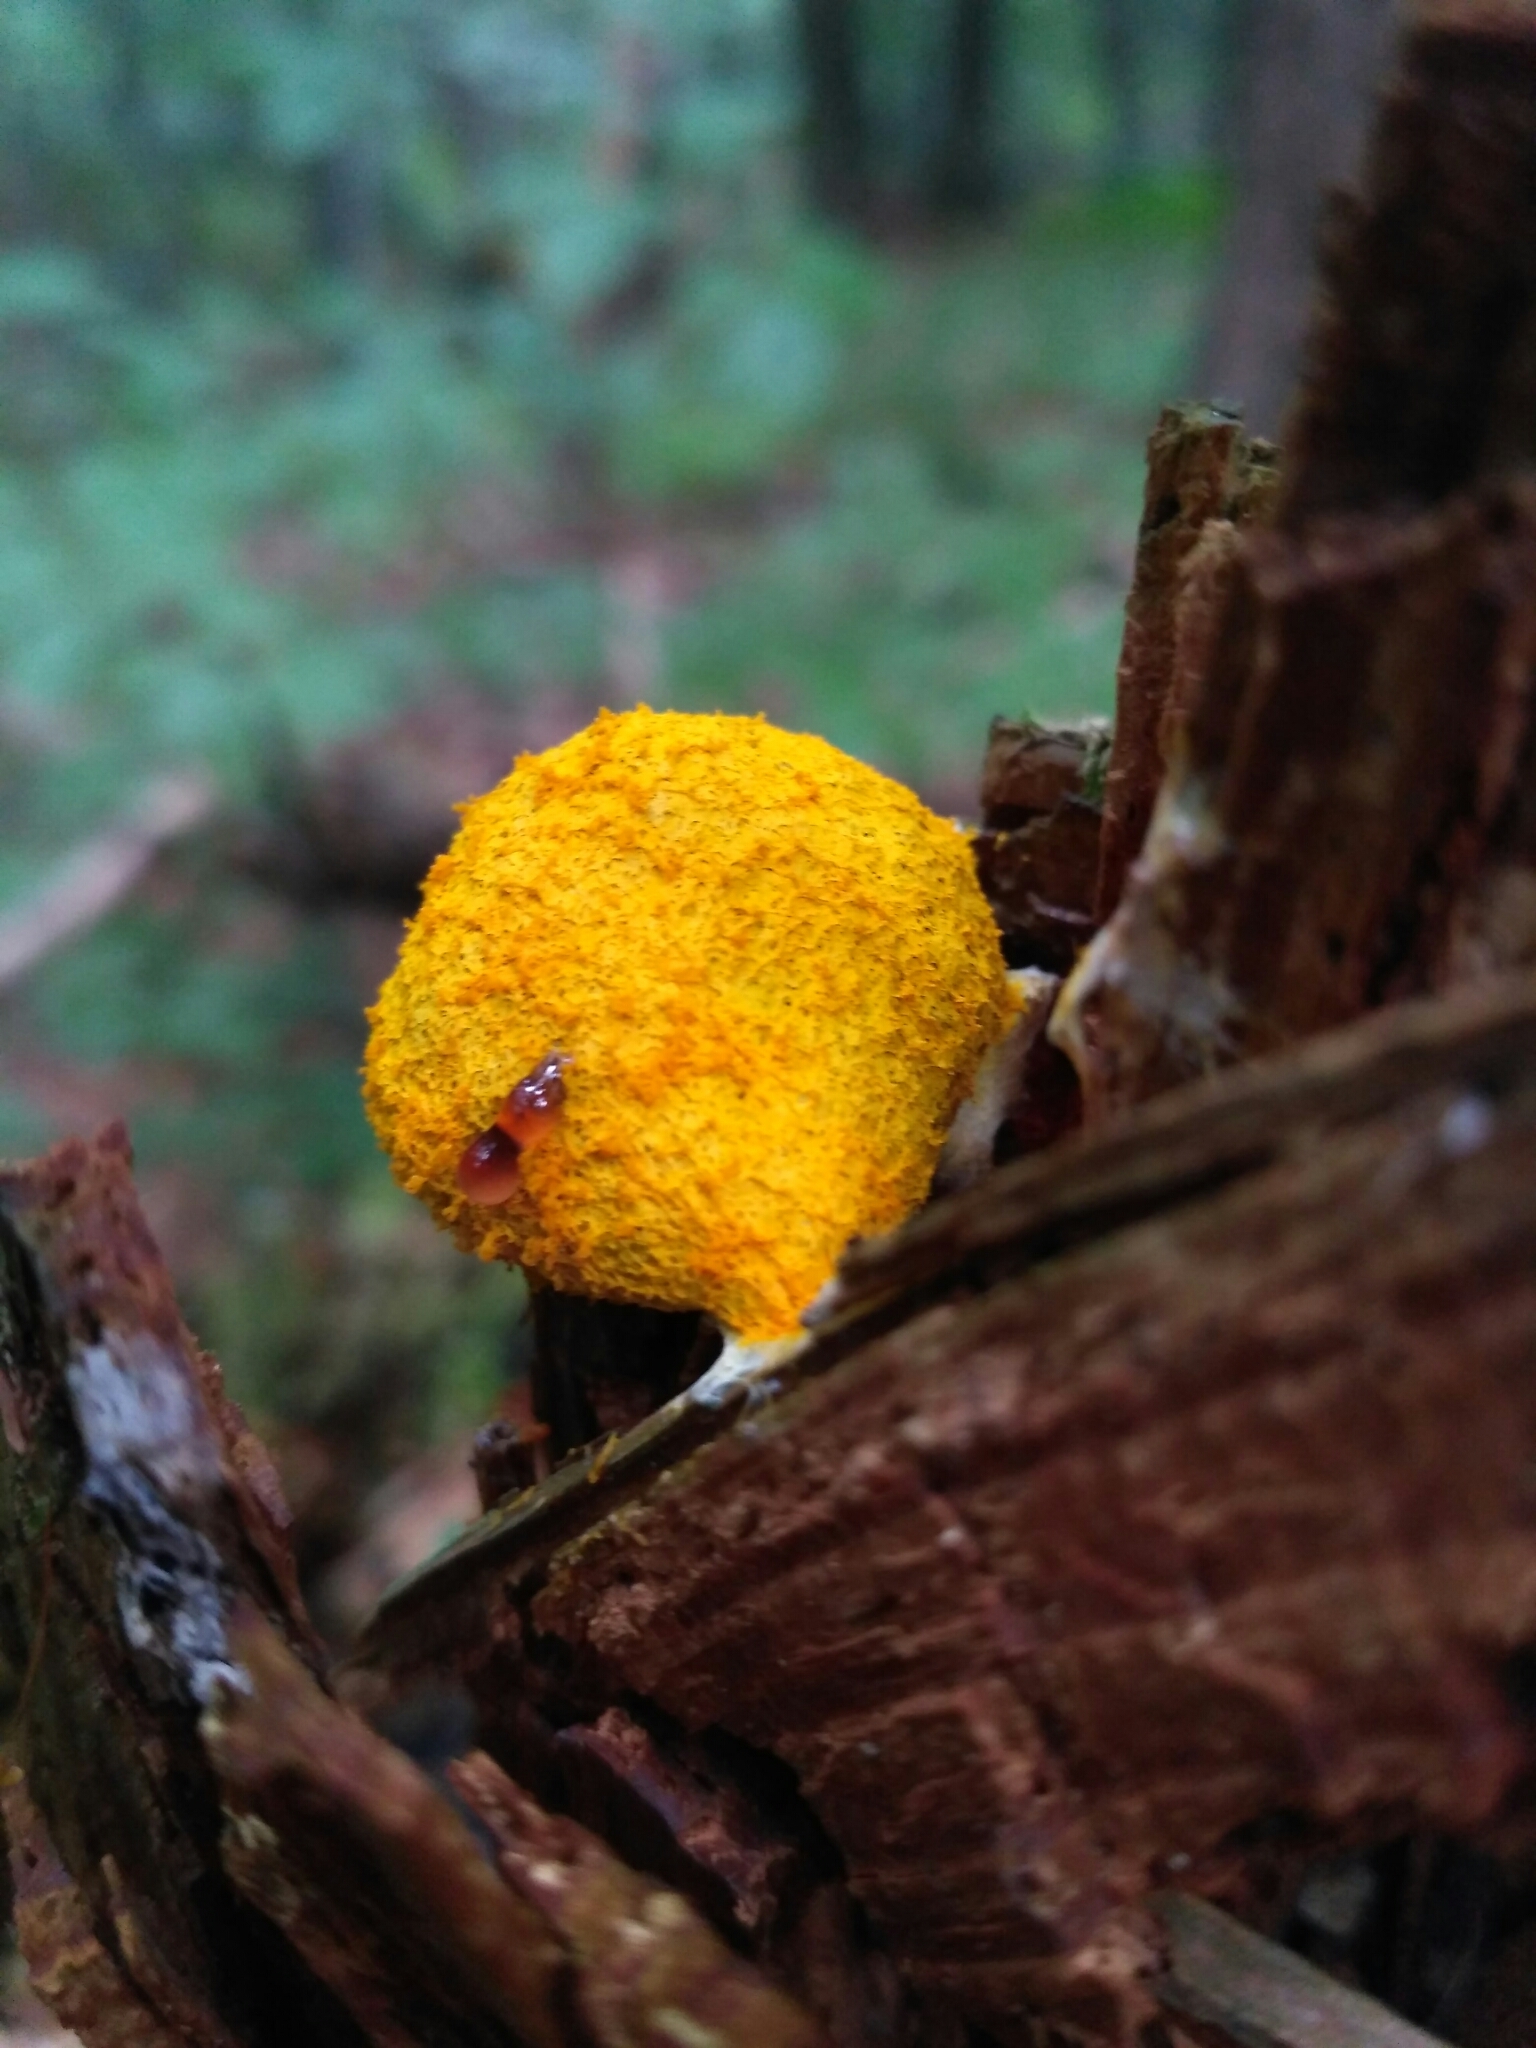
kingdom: Protozoa
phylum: Mycetozoa
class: Myxomycetes
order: Physarales
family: Physaraceae
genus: Fuligo
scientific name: Fuligo septica
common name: Dog vomit slime mold
